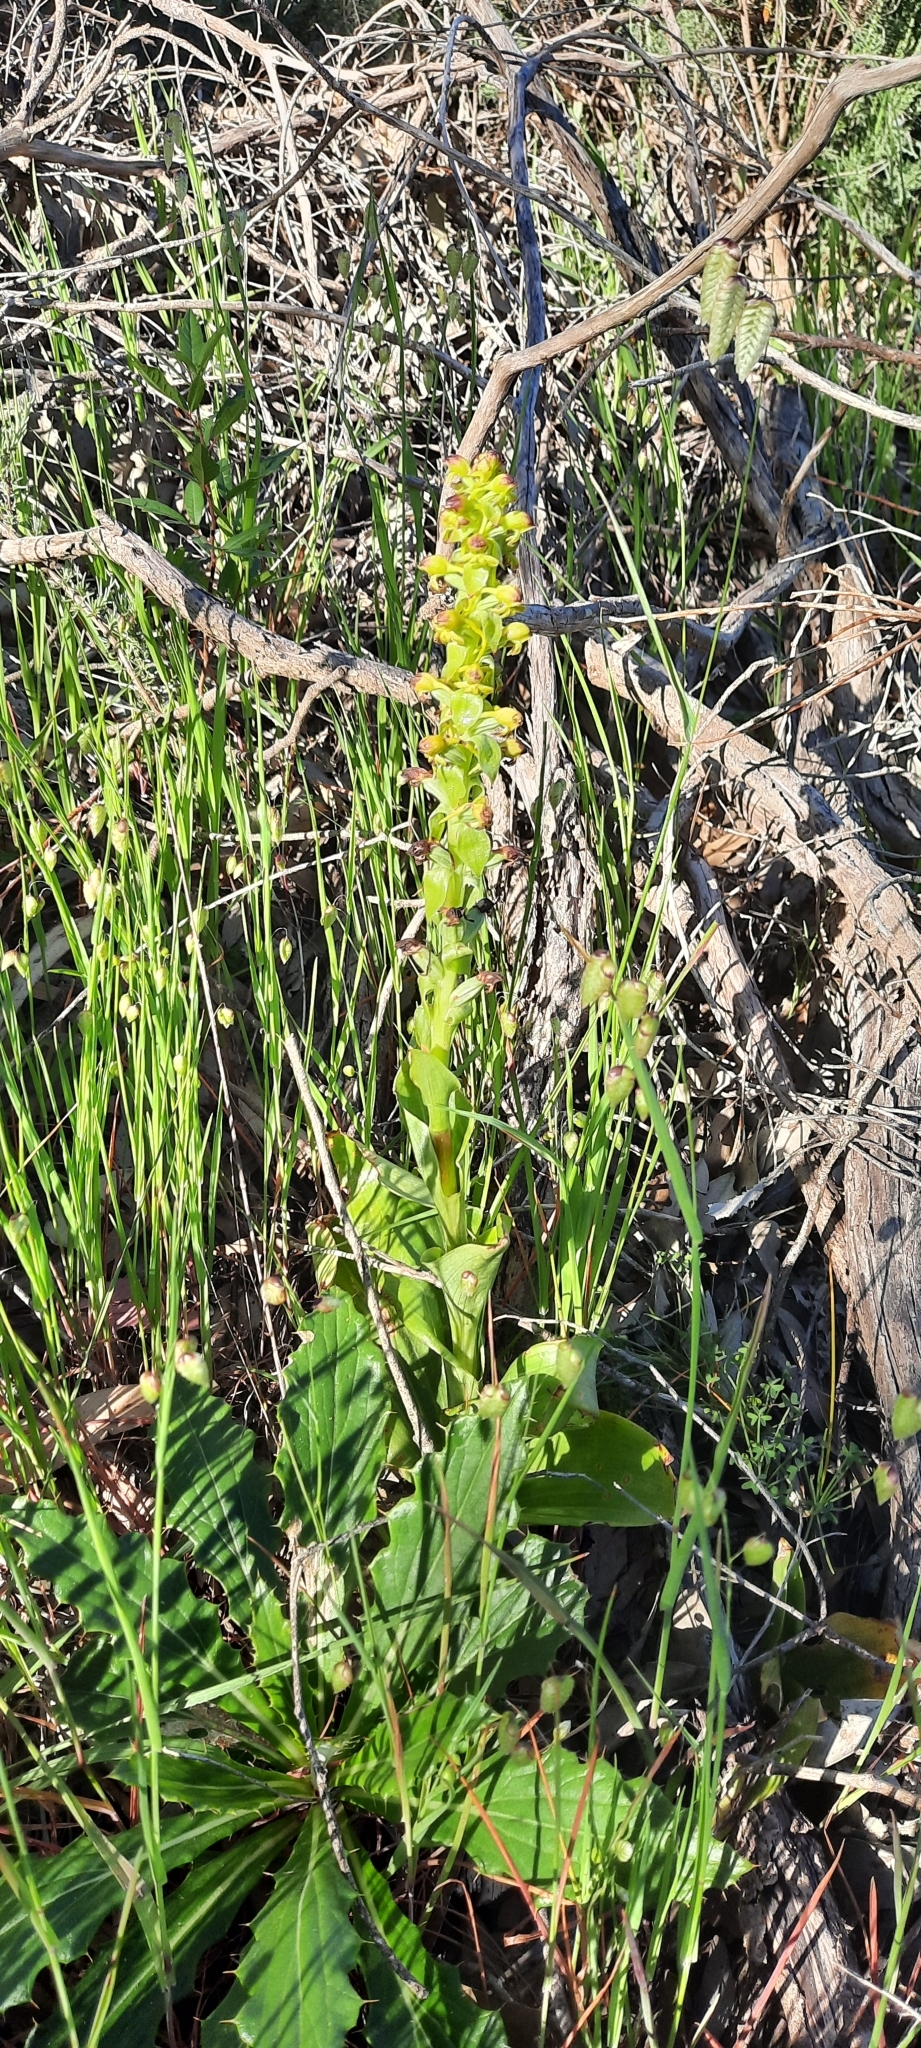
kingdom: Plantae
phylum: Tracheophyta
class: Liliopsida
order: Asparagales
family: Orchidaceae
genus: Satyrium
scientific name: Satyrium odorum
